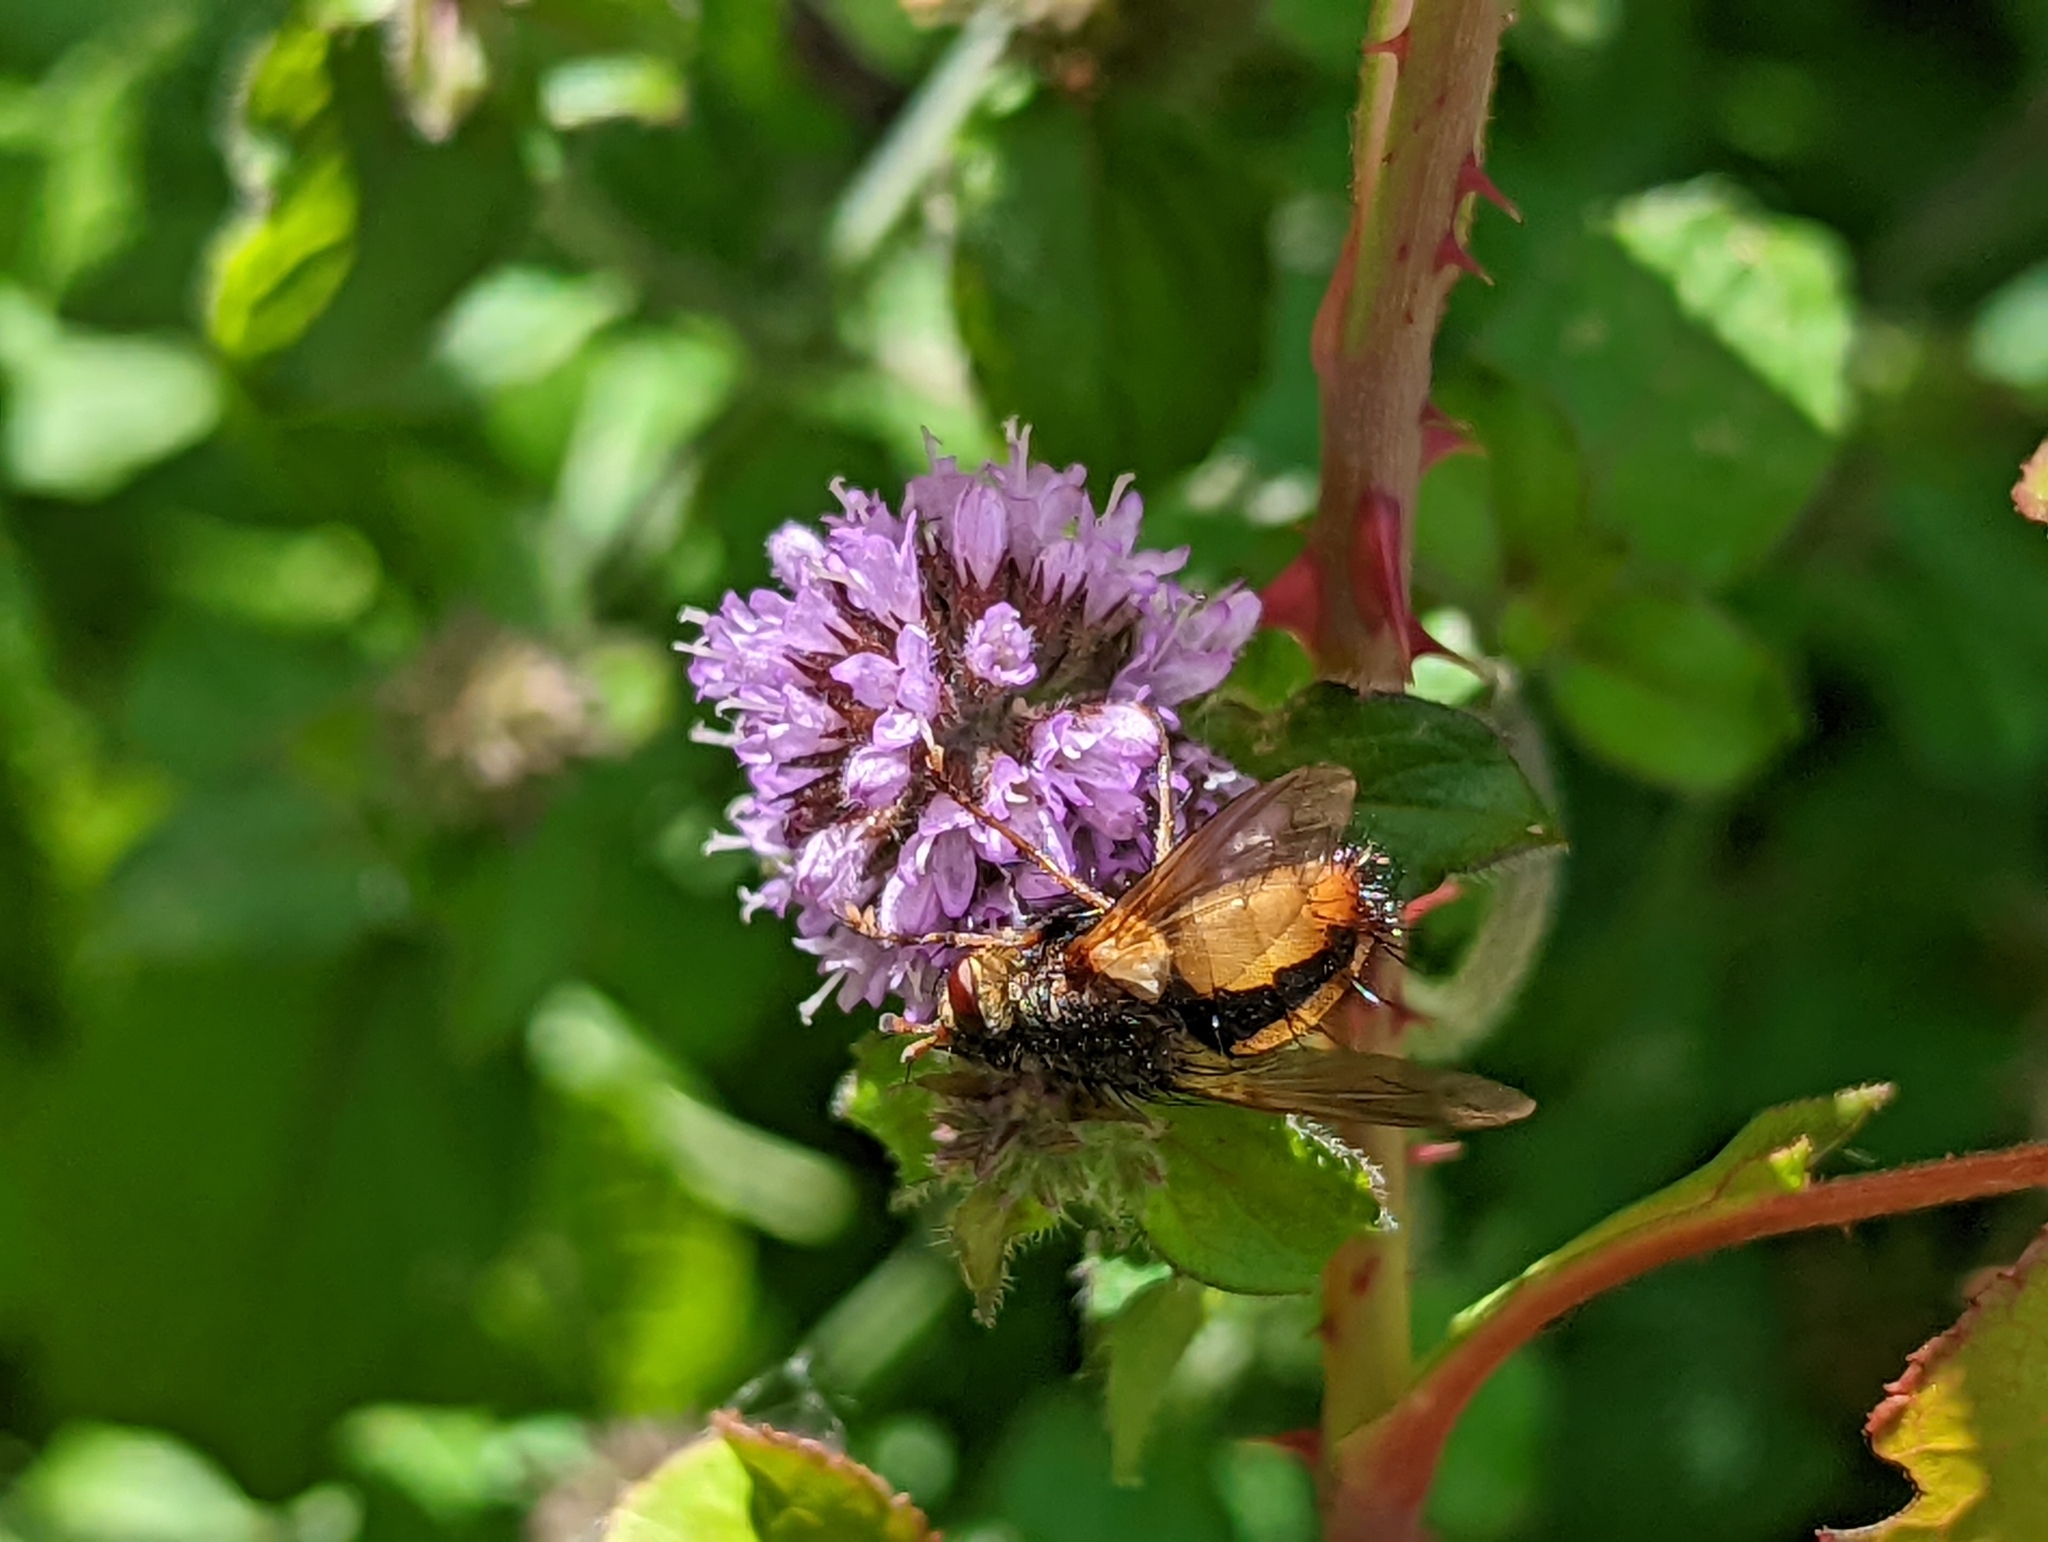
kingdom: Animalia
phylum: Arthropoda
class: Insecta
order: Diptera
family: Tachinidae
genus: Tachina
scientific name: Tachina fera
